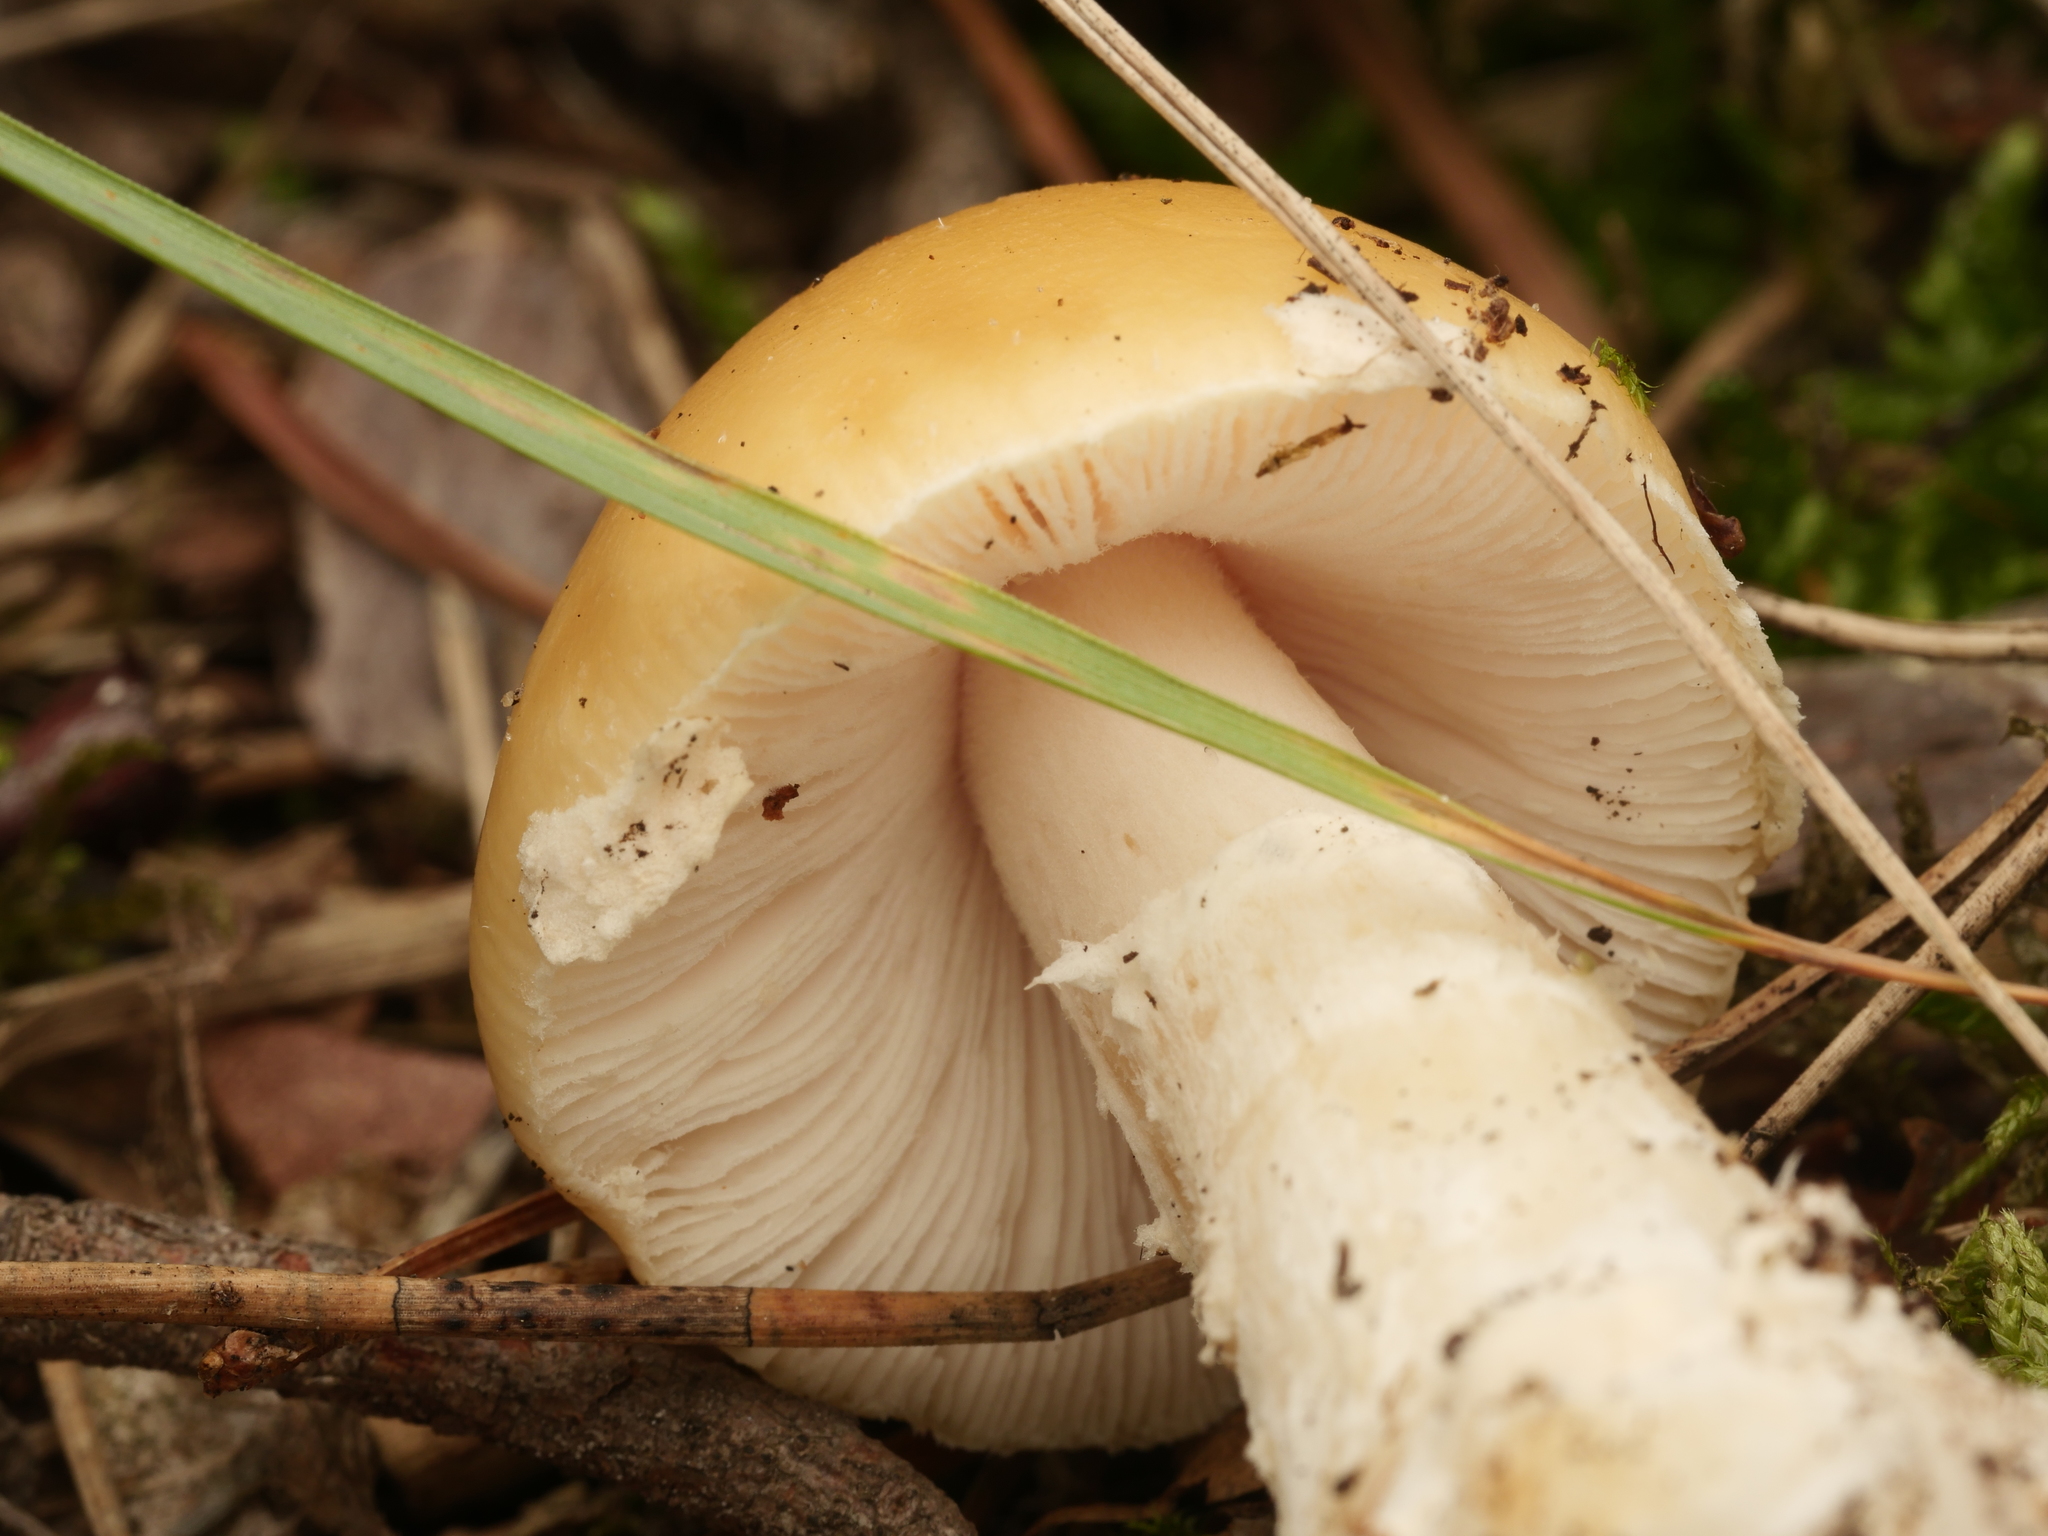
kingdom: Fungi
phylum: Basidiomycota
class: Agaricomycetes
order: Agaricales
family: Amanitaceae
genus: Amanita
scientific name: Amanita gemmata
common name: Jewelled amanita
